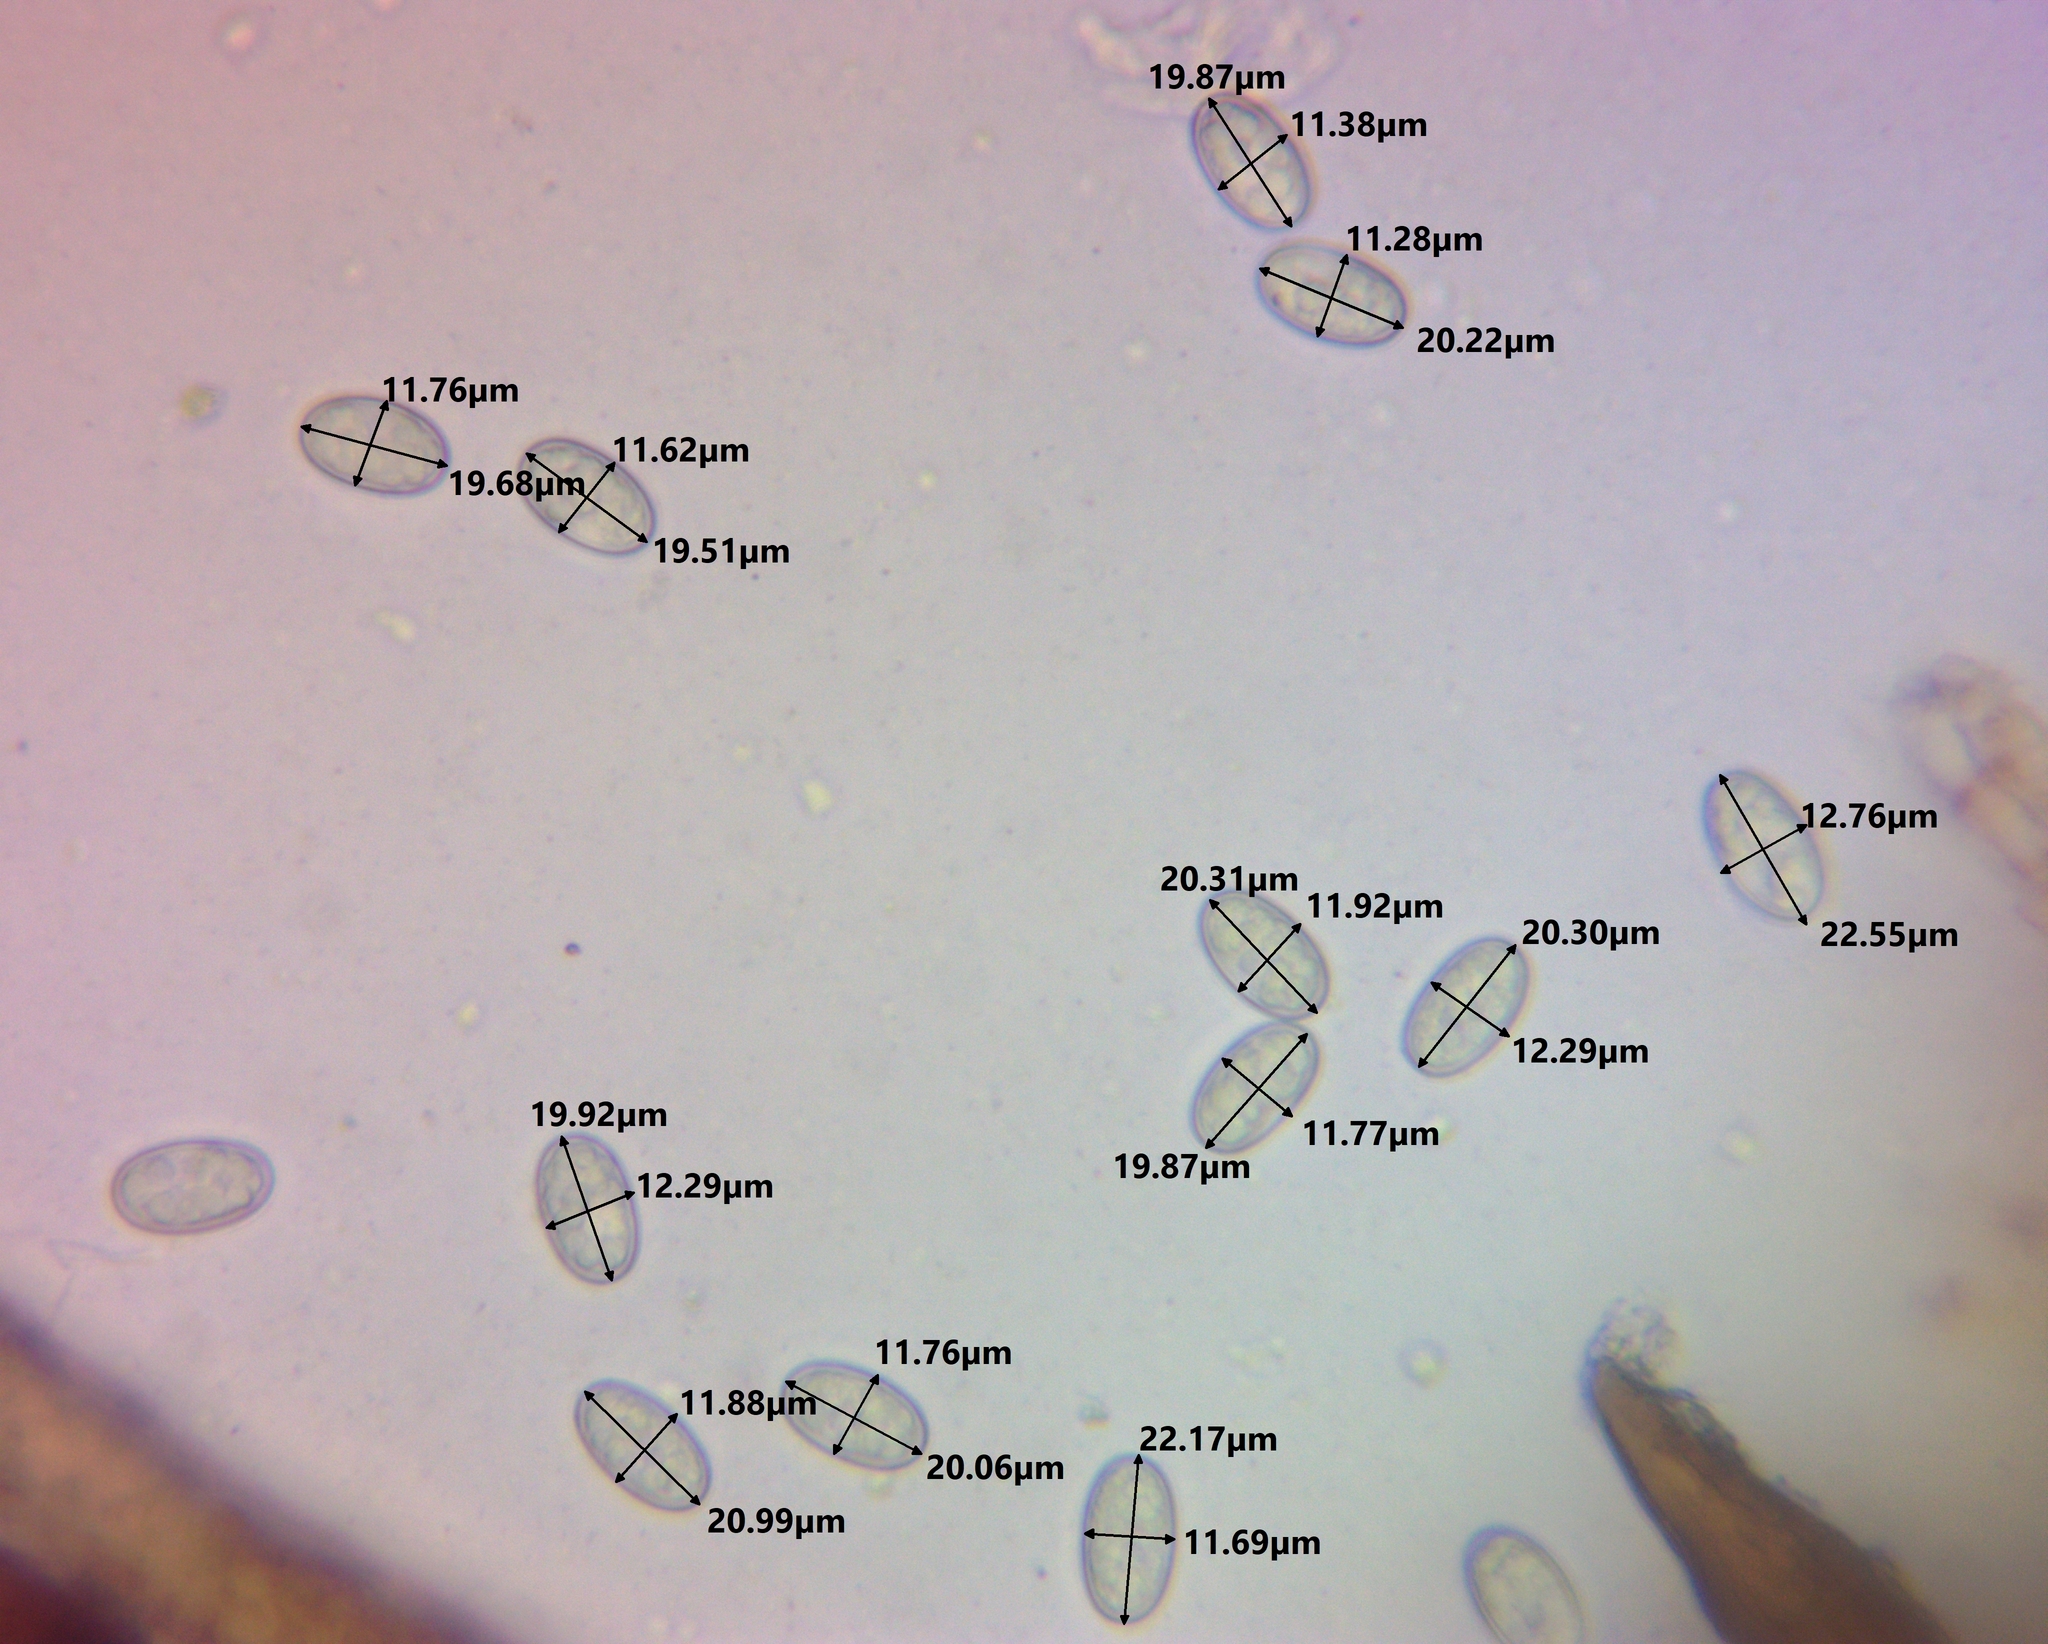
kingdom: Fungi
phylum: Ascomycota
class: Pezizomycetes
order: Pezizales
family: Pyronemataceae
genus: Scutellinia
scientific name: Scutellinia setosa
